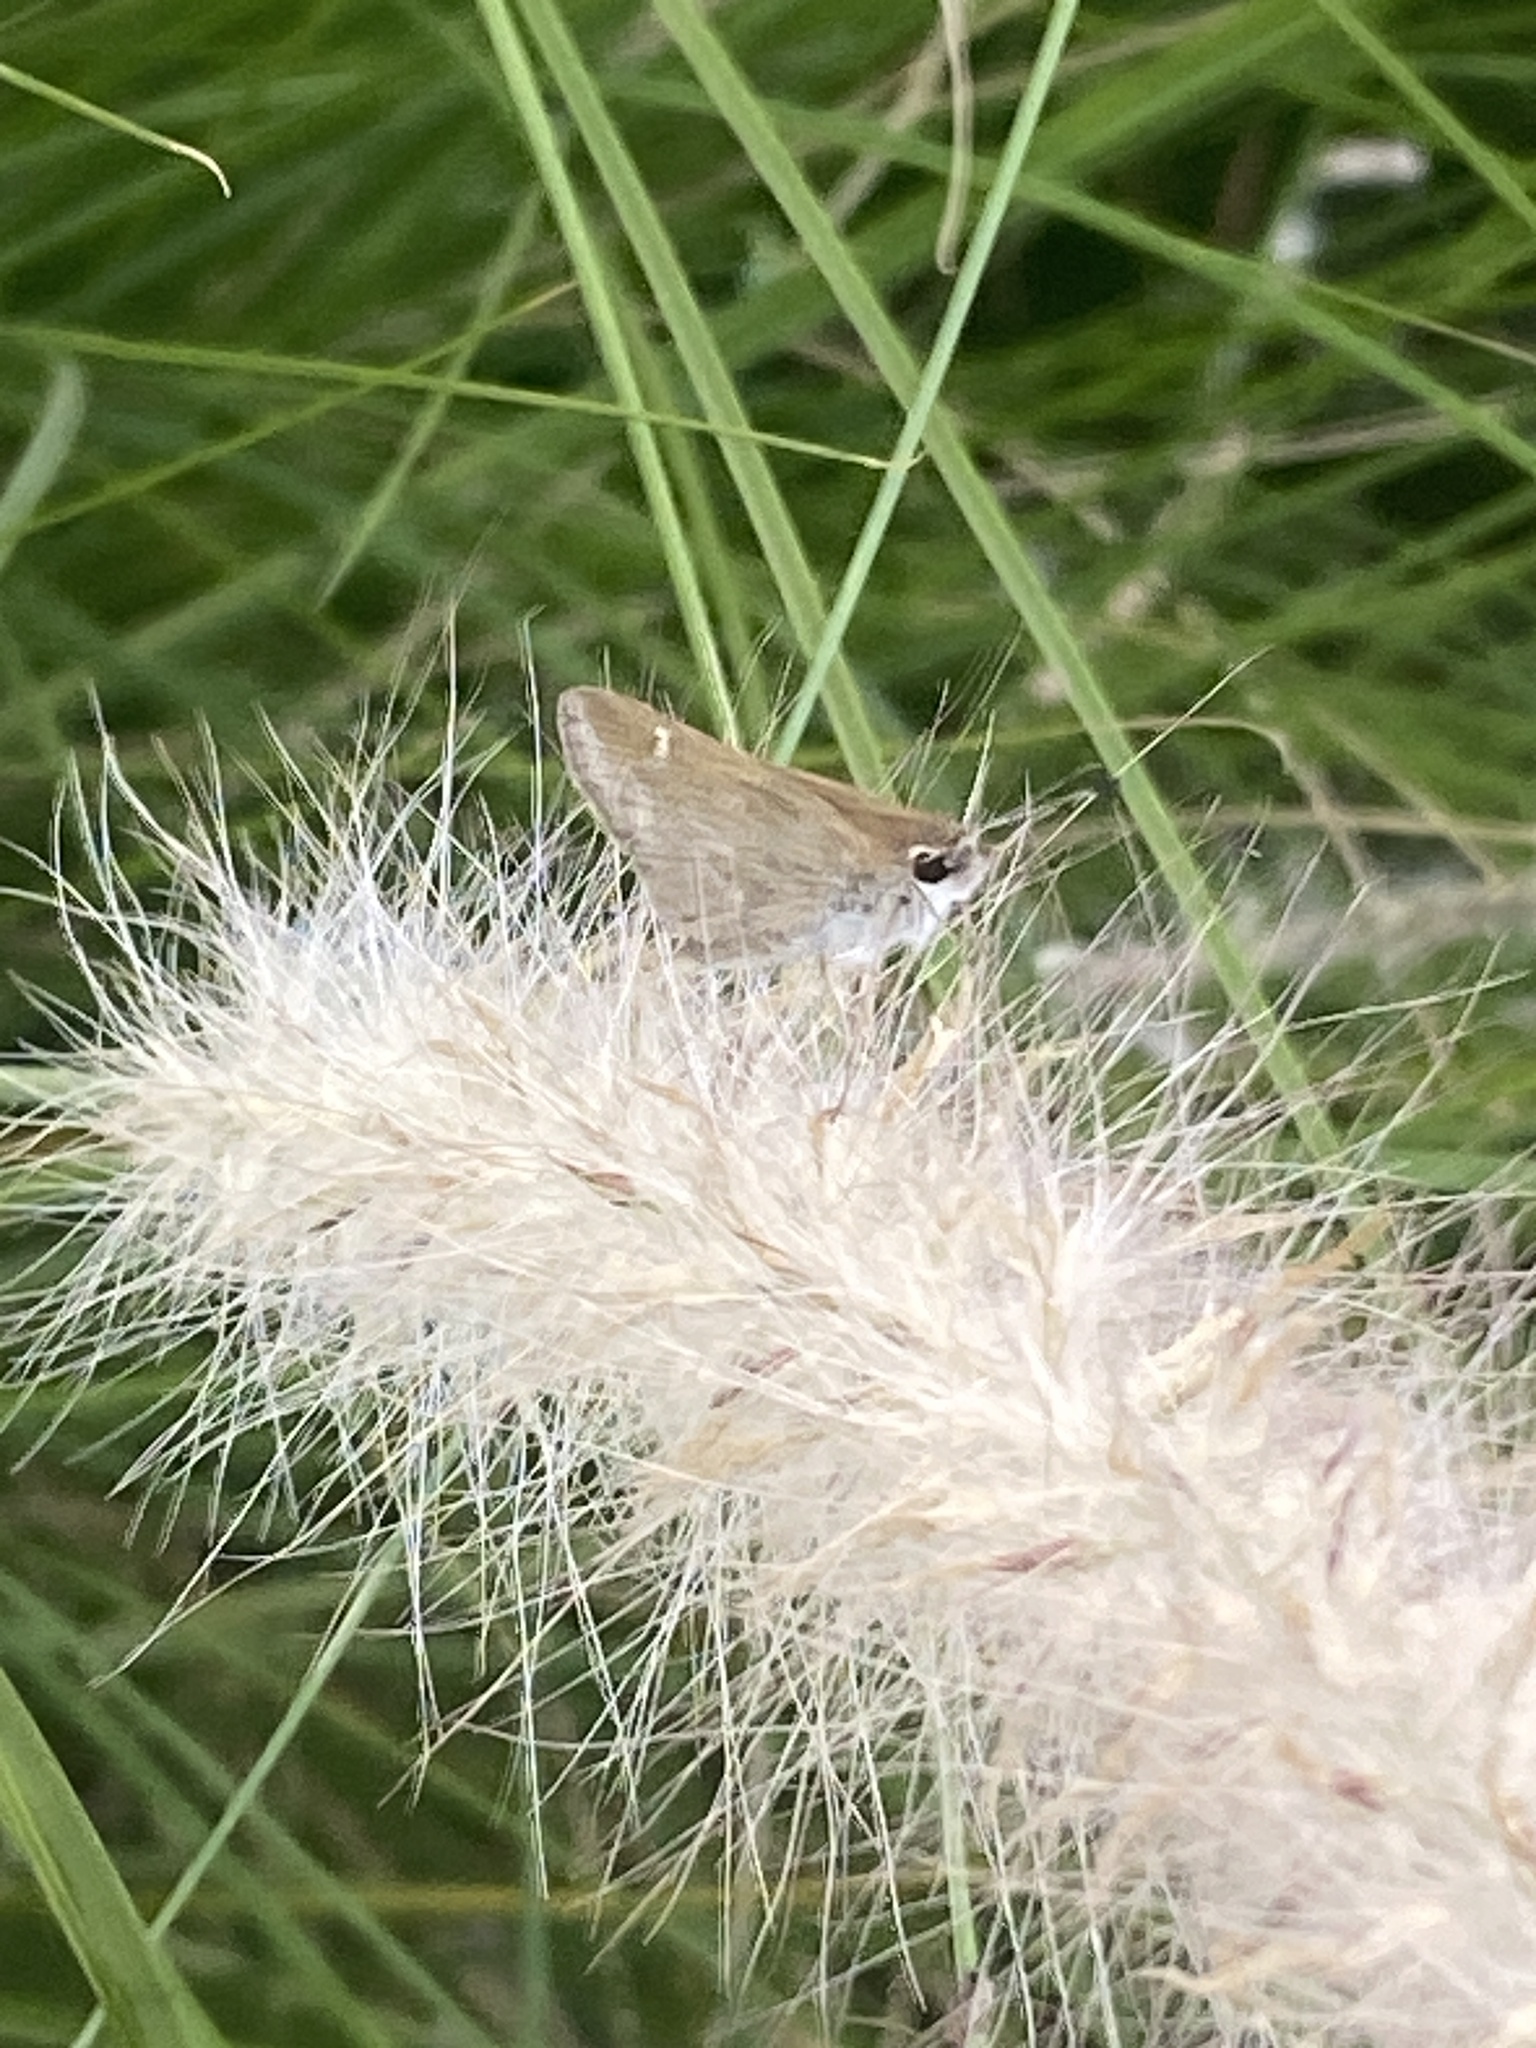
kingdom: Animalia
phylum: Arthropoda
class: Insecta
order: Lepidoptera
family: Hesperiidae
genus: Lerodea
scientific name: Lerodea eufala
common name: Eufala skipper
